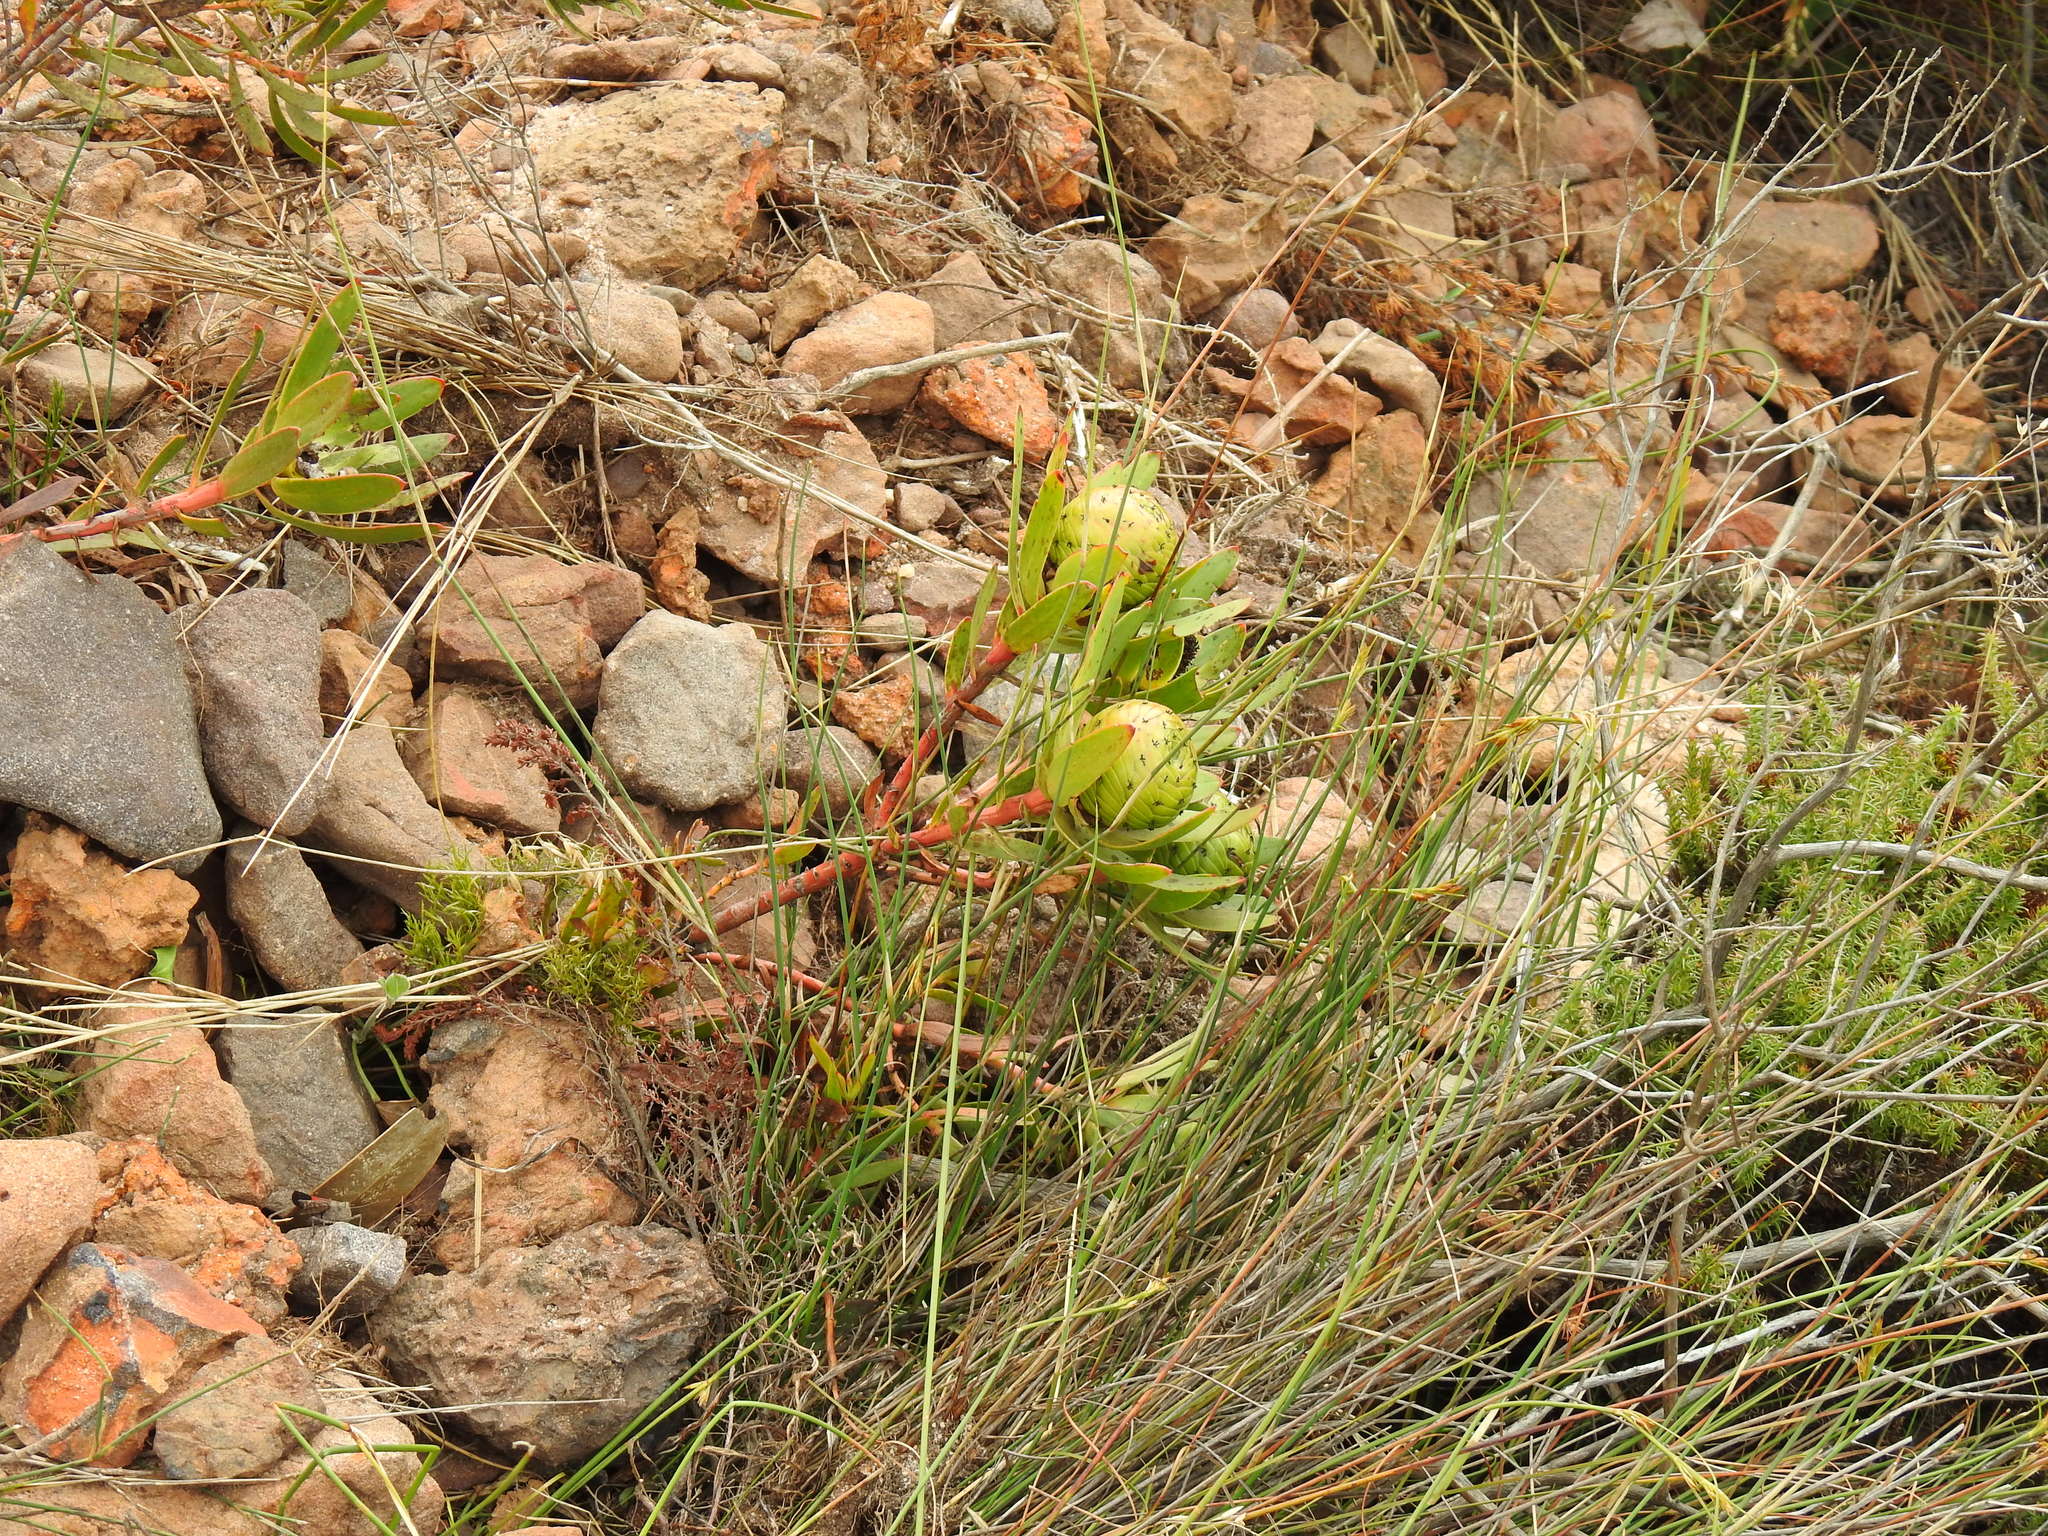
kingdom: Plantae
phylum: Tracheophyta
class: Magnoliopsida
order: Proteales
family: Proteaceae
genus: Leucadendron
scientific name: Leucadendron spissifolium
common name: Spear-leaf conebush
